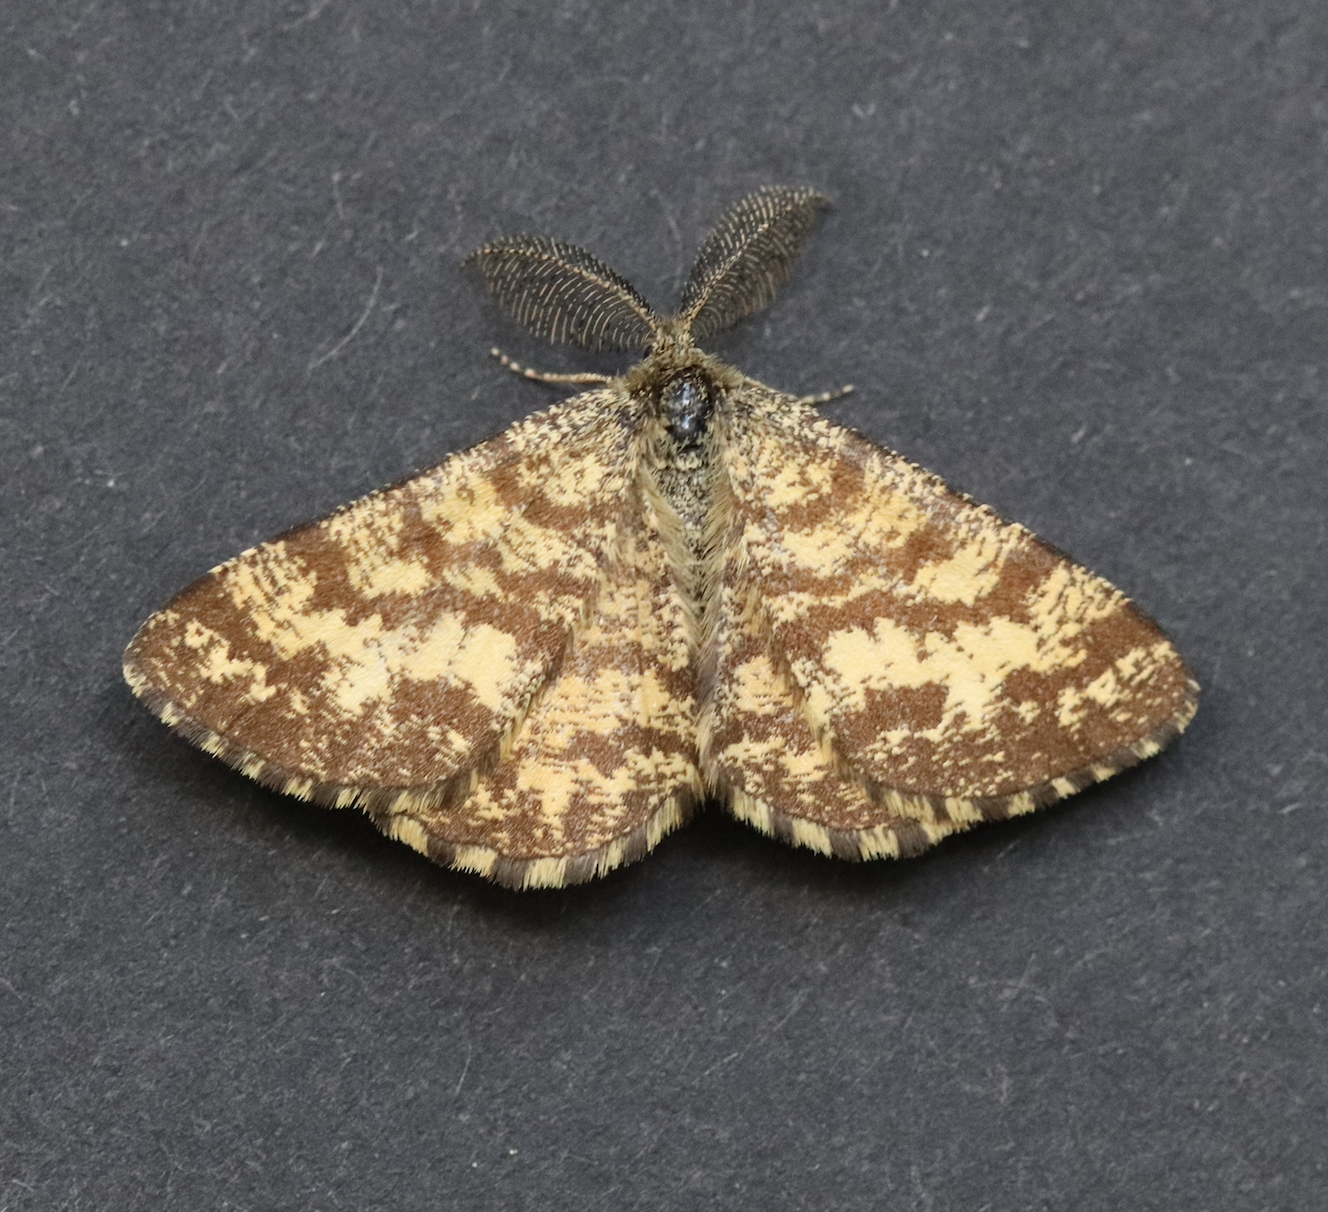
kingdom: Animalia
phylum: Arthropoda
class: Insecta
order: Lepidoptera
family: Geometridae
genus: Ematurga
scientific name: Ematurga atomaria
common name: Common heath
